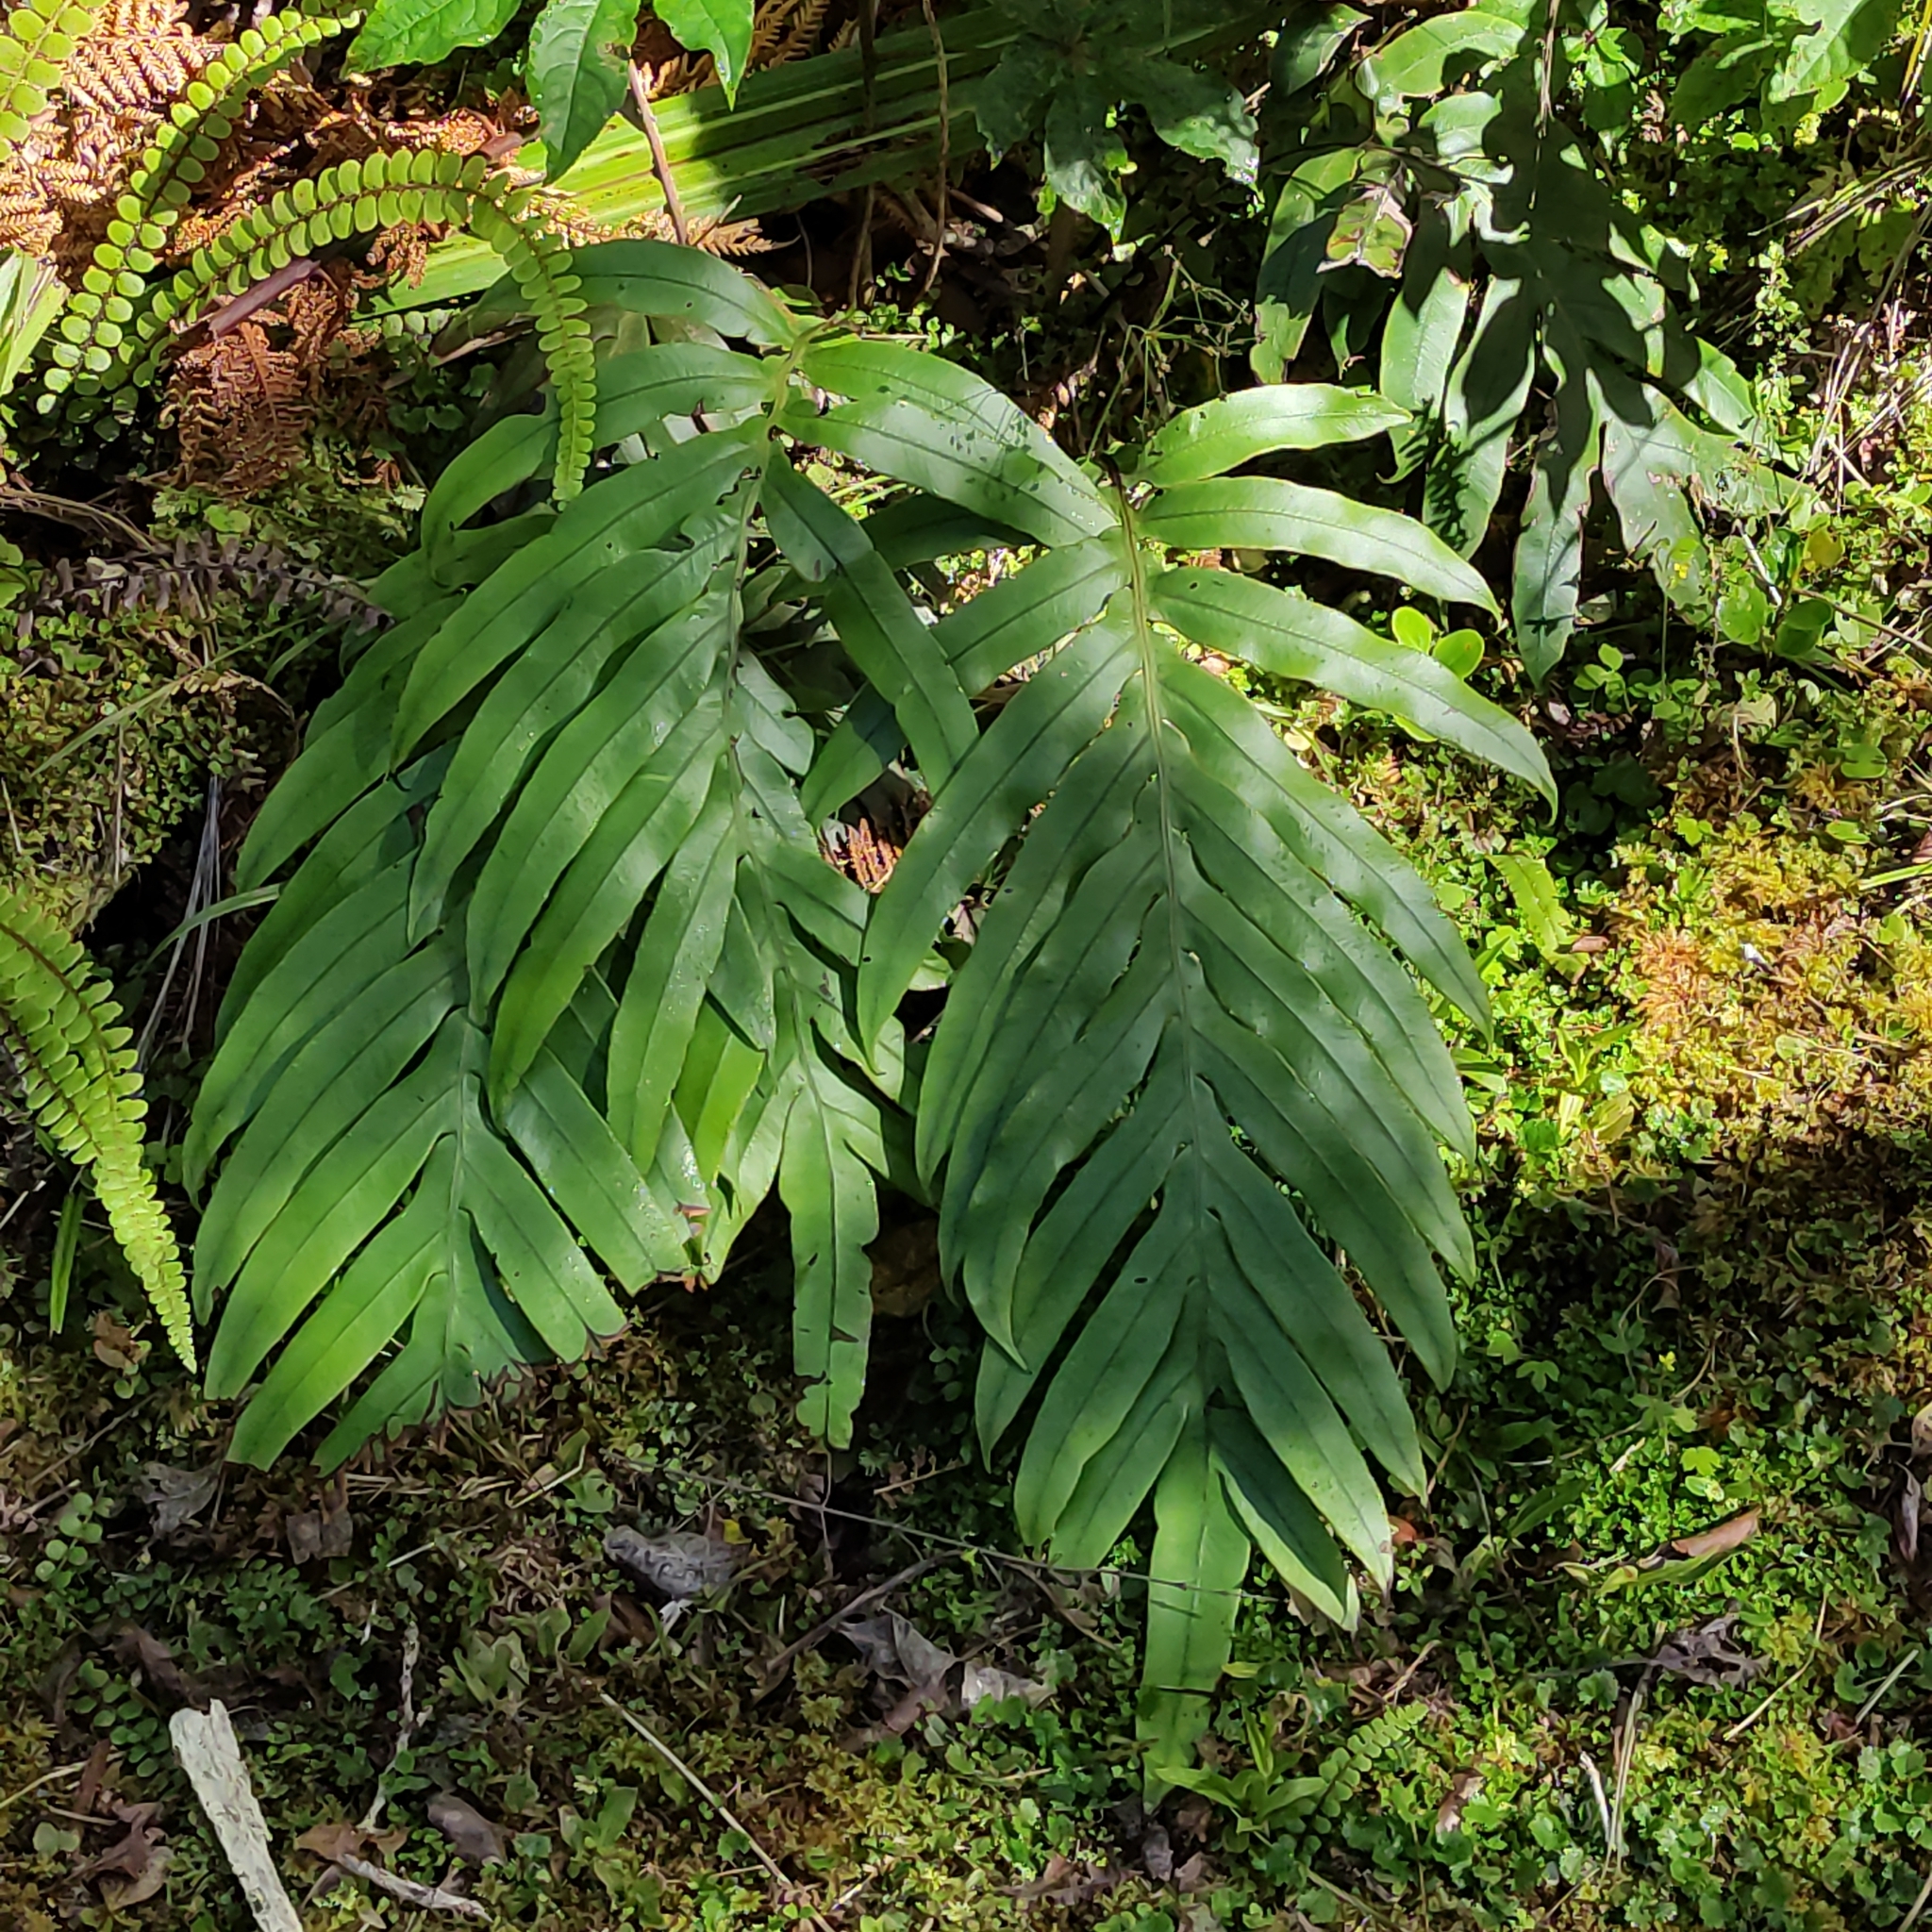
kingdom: Plantae
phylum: Tracheophyta
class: Polypodiopsida
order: Polypodiales
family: Blechnaceae
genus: Austroblechnum
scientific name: Austroblechnum colensoi
